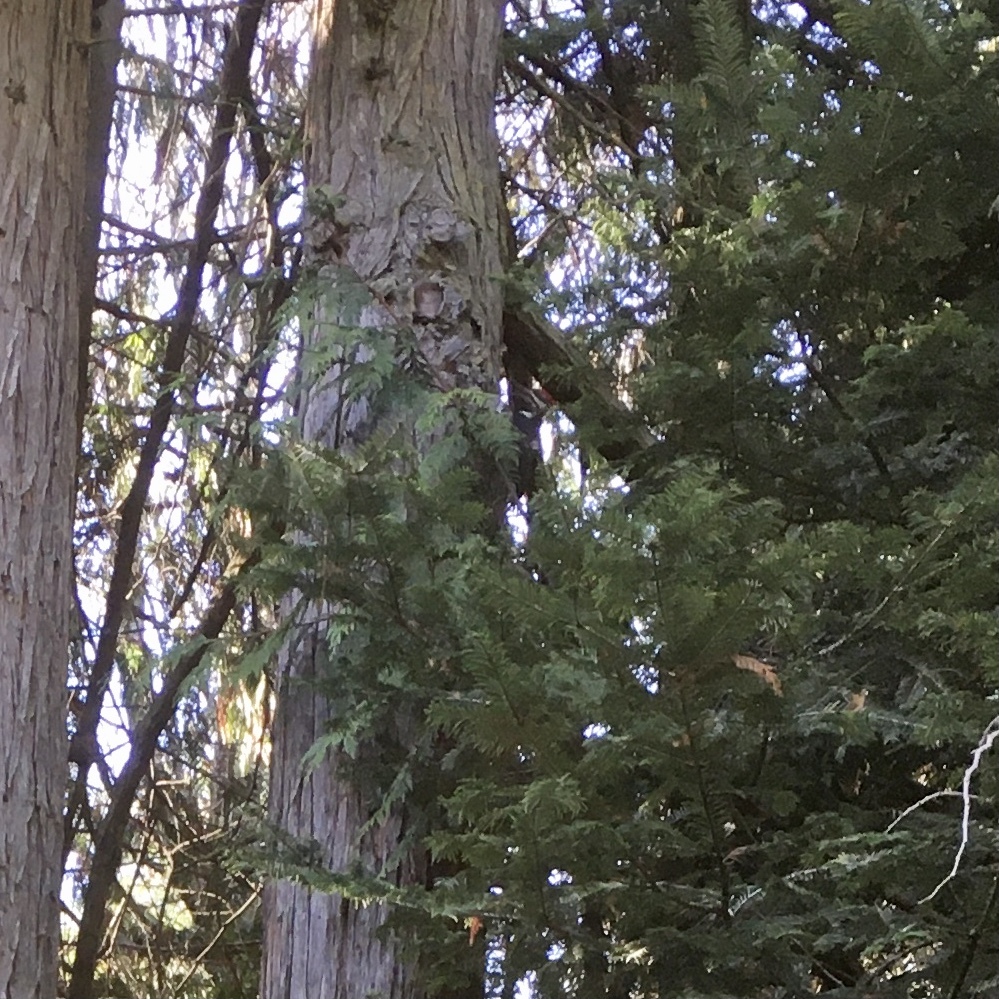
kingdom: Animalia
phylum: Chordata
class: Aves
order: Piciformes
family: Picidae
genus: Dryocopus
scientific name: Dryocopus pileatus
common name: Pileated woodpecker
